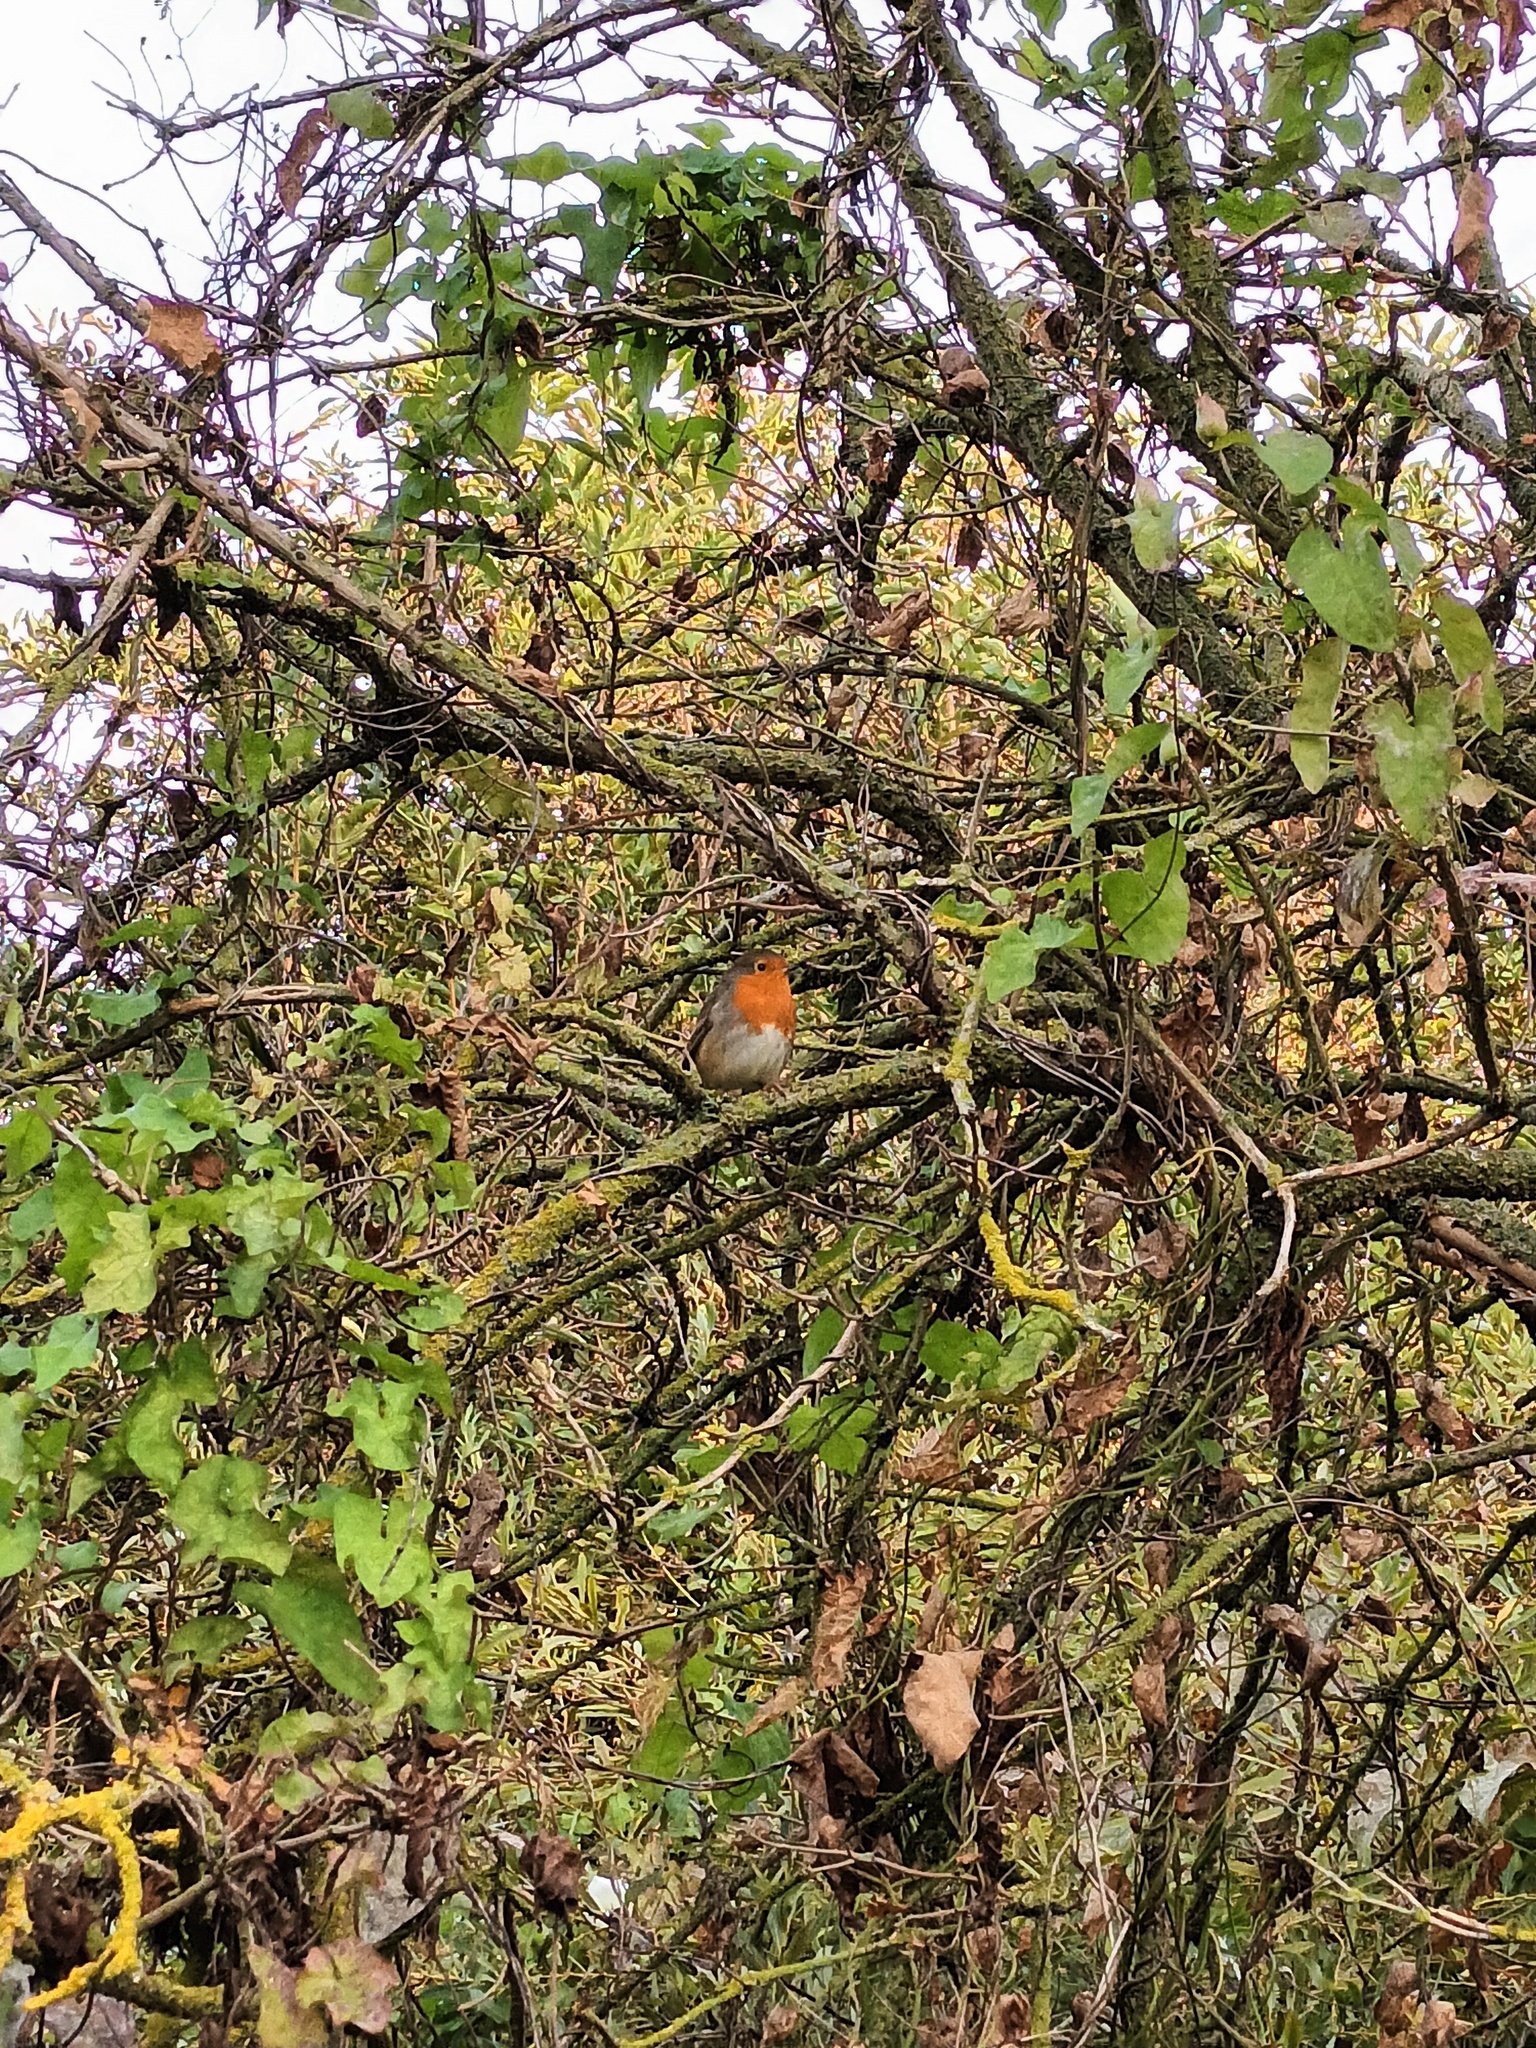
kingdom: Animalia
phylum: Chordata
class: Aves
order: Passeriformes
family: Muscicapidae
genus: Erithacus
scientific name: Erithacus rubecula
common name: European robin
